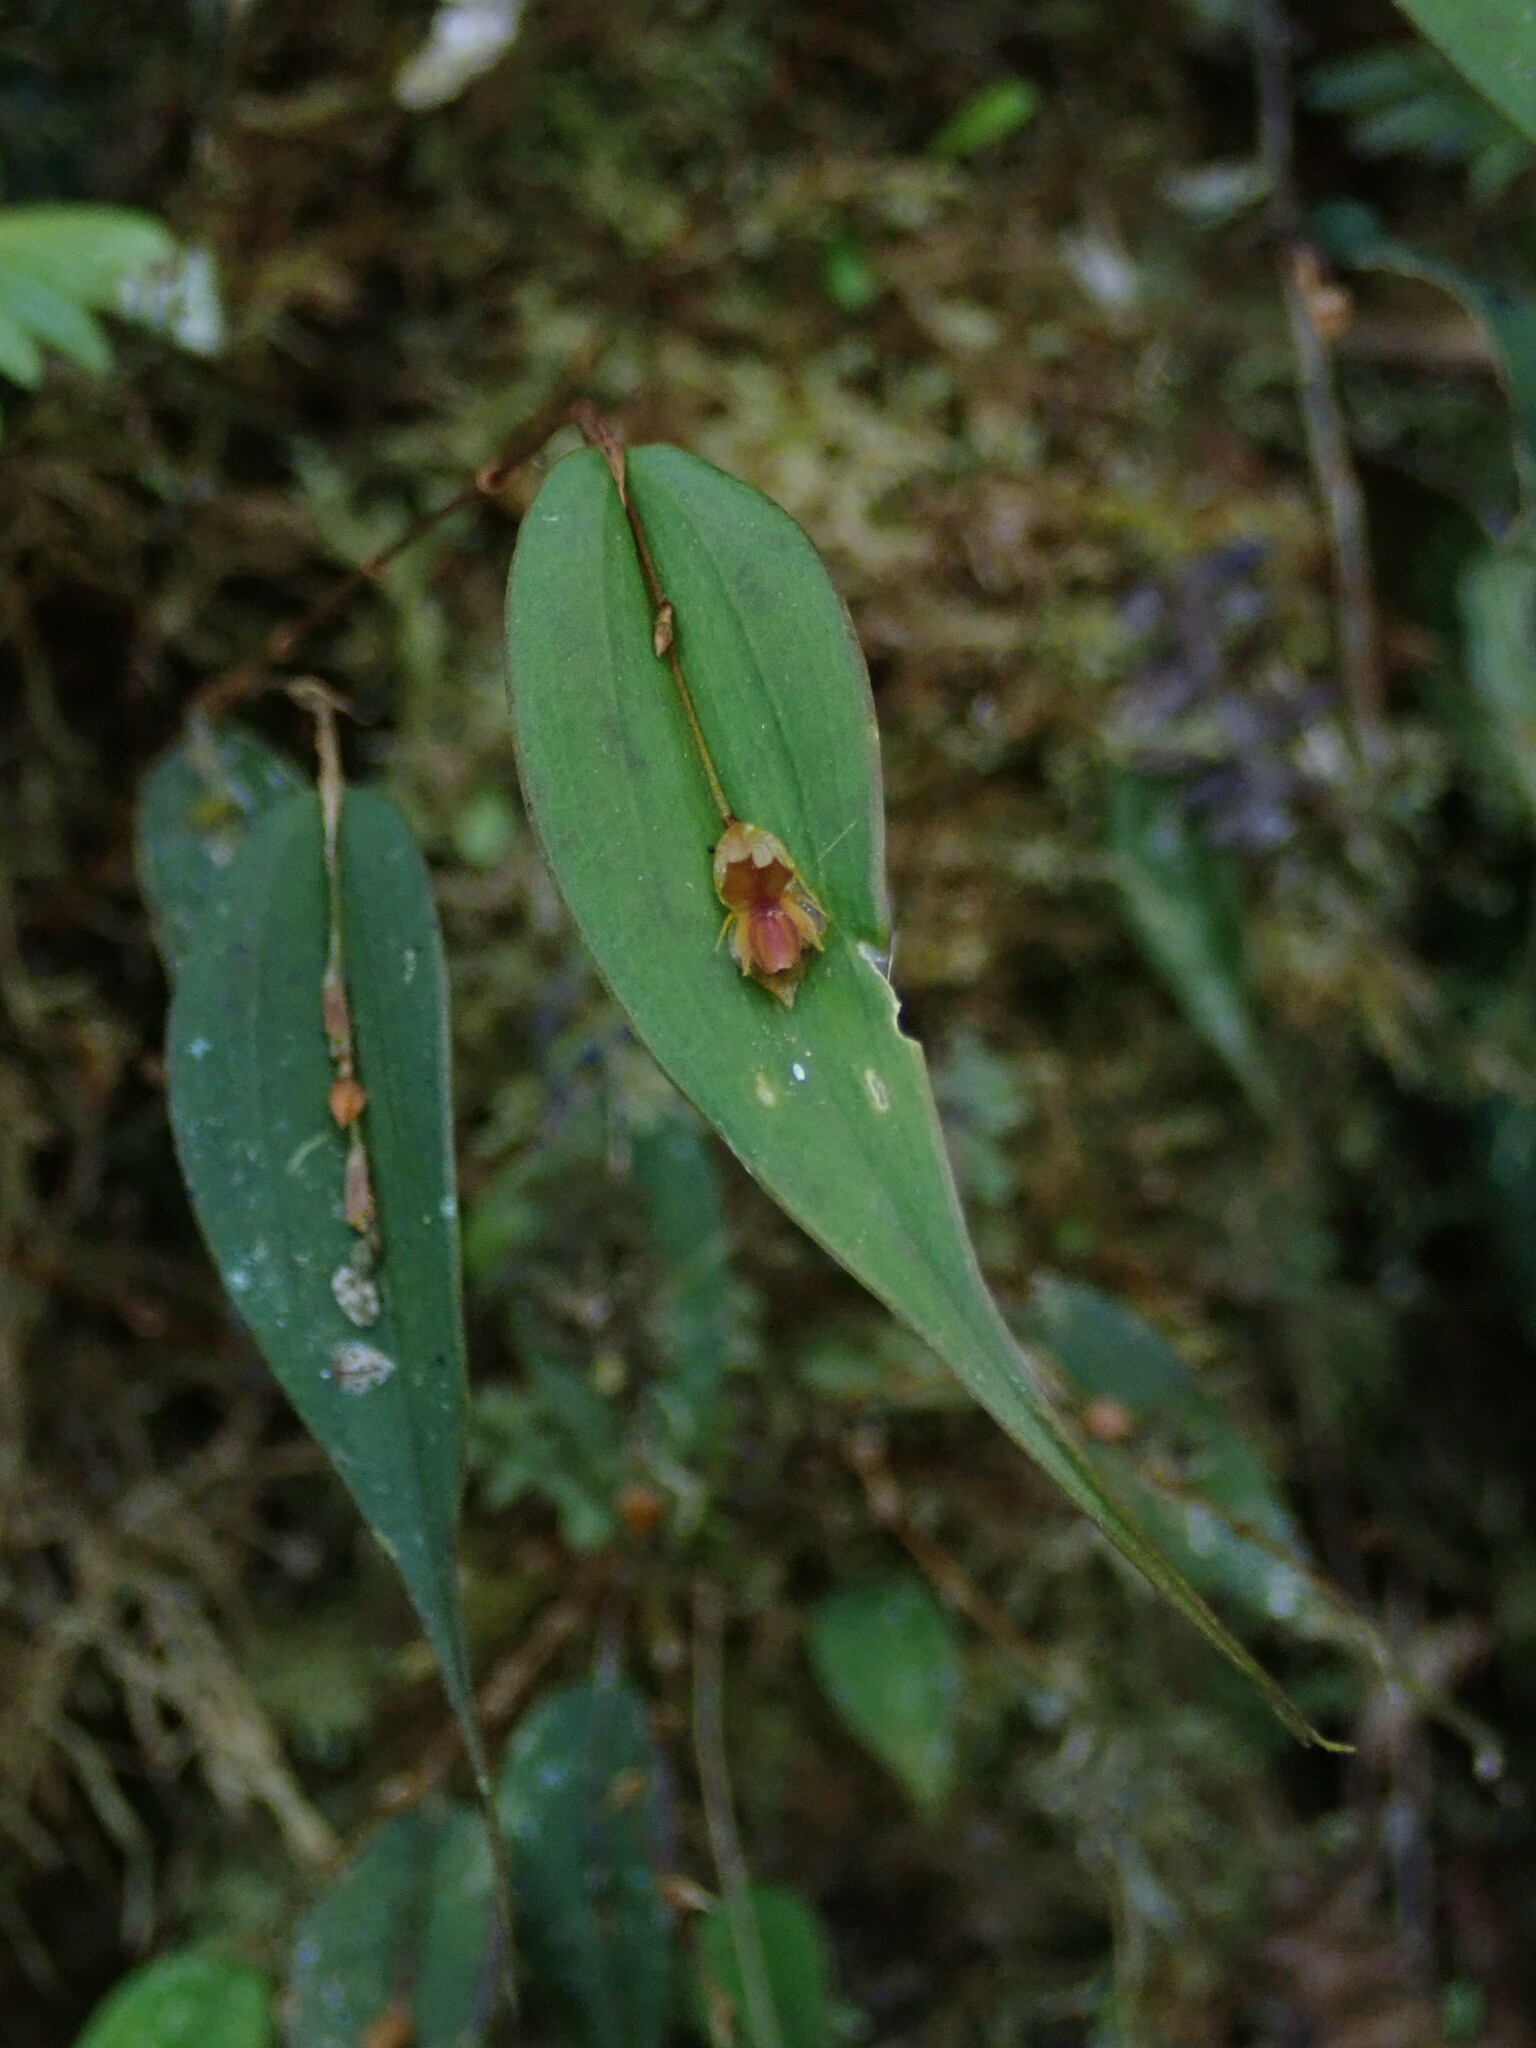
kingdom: Plantae
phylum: Tracheophyta
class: Liliopsida
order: Asparagales
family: Orchidaceae
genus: Lepanthes
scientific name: Lepanthes mucronata
